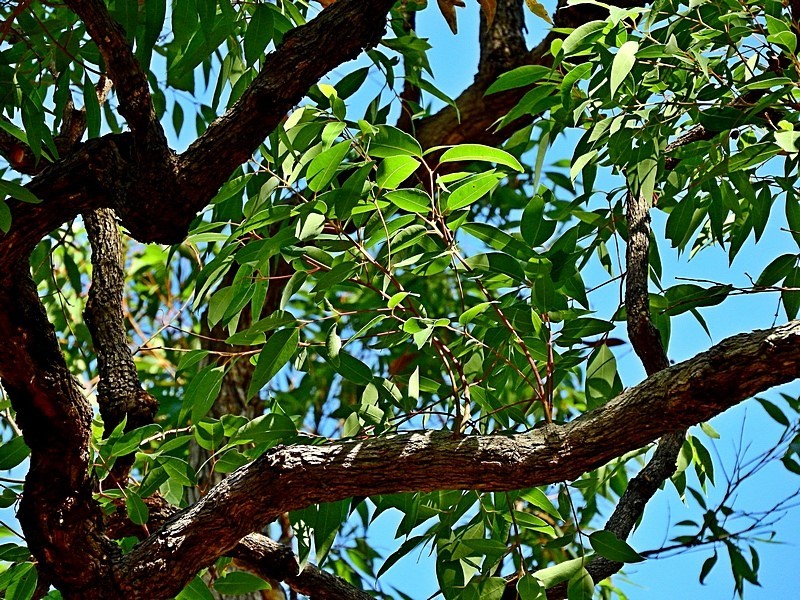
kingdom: Plantae
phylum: Tracheophyta
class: Magnoliopsida
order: Myrtales
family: Myrtaceae
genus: Angophora
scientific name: Angophora floribunda
